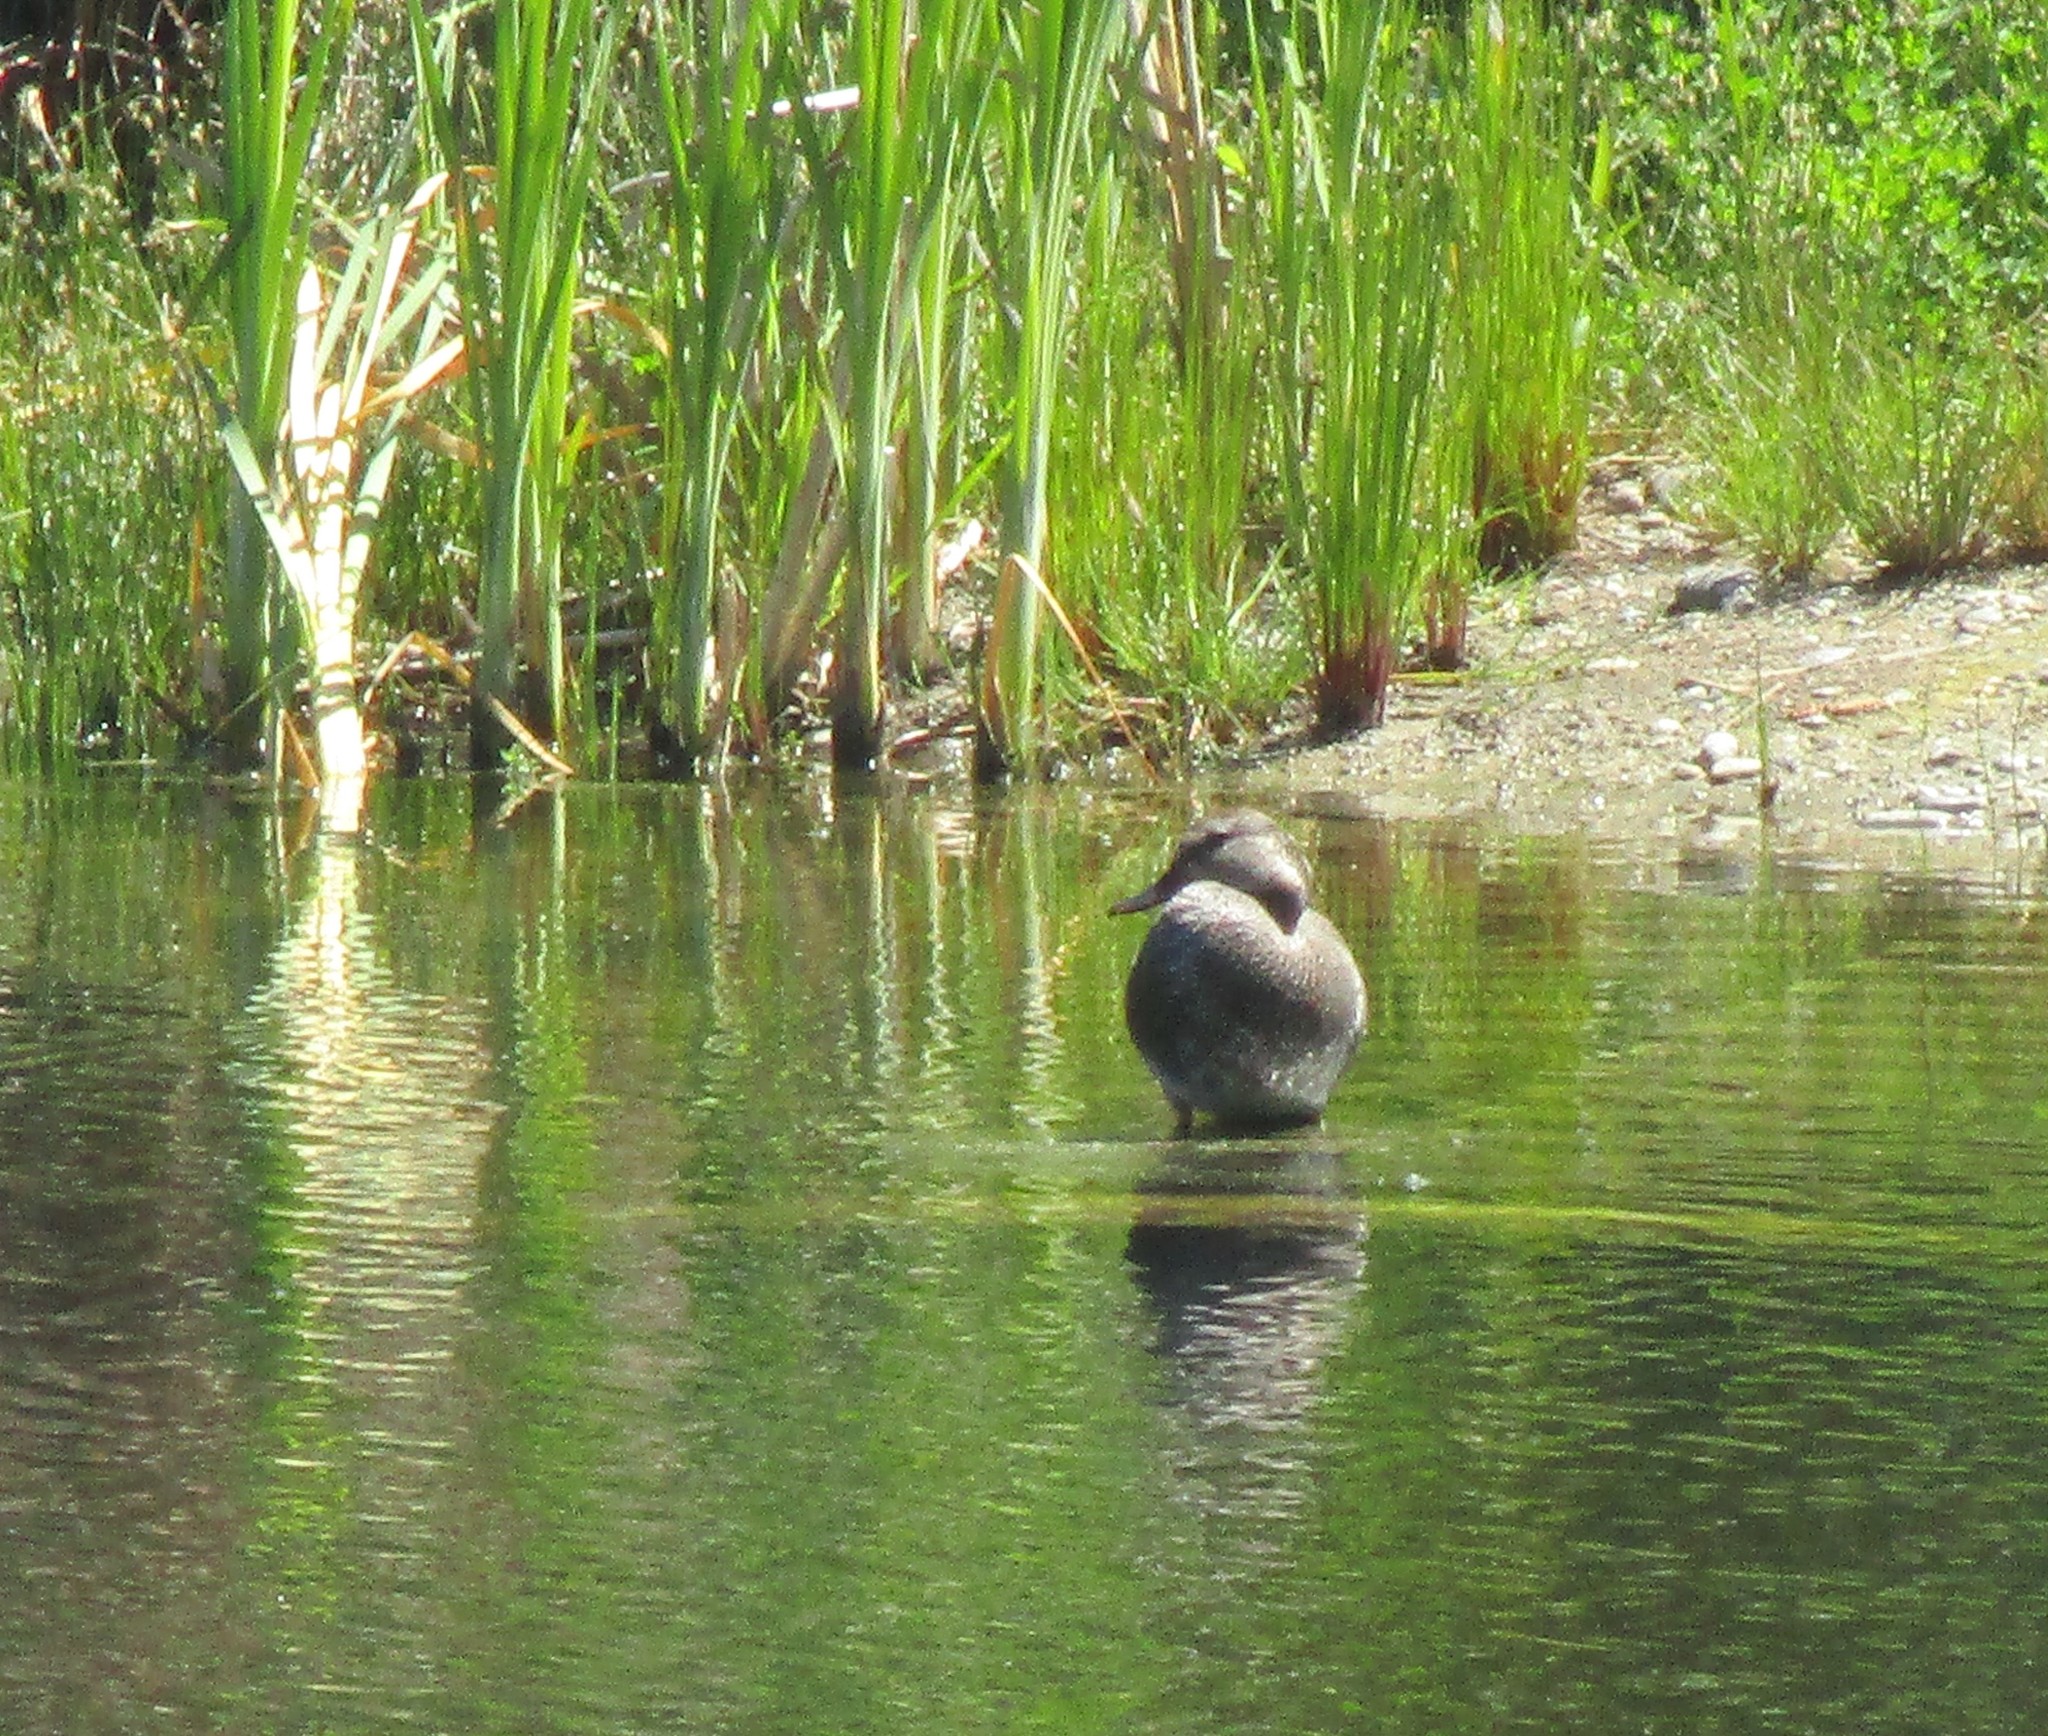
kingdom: Animalia
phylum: Chordata
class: Aves
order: Anseriformes
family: Anatidae
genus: Mareca
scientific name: Mareca strepera
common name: Gadwall
